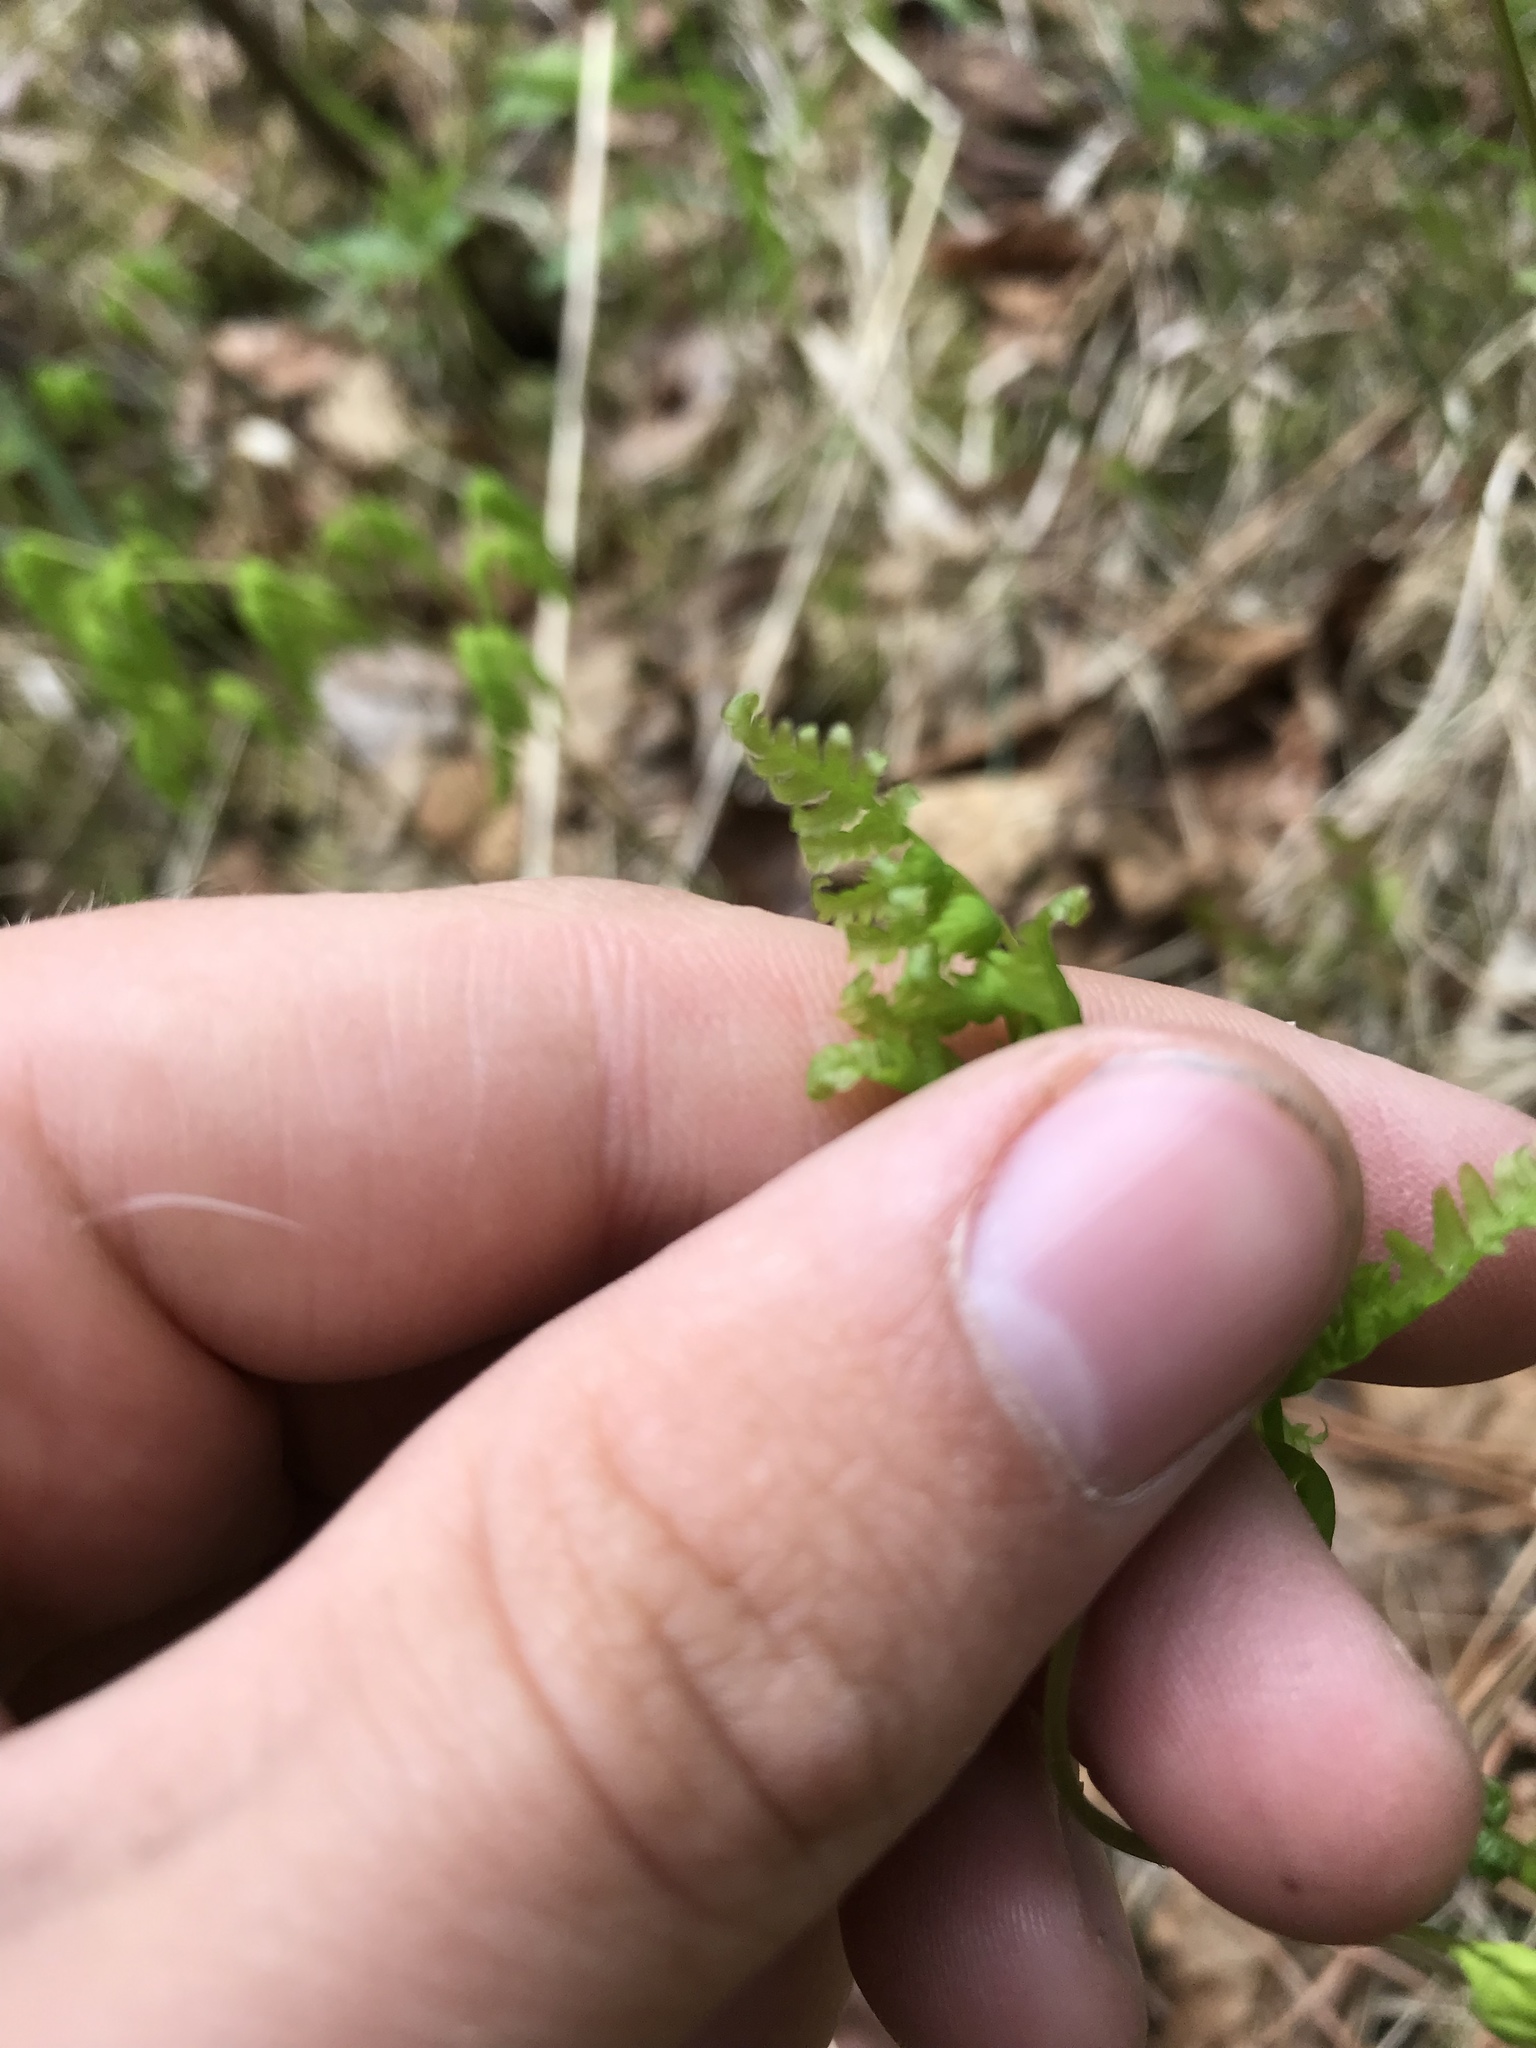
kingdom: Plantae
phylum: Tracheophyta
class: Polypodiopsida
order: Polypodiales
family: Cystopteridaceae
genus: Gymnocarpium
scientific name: Gymnocarpium dryopteris
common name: Oak fern
